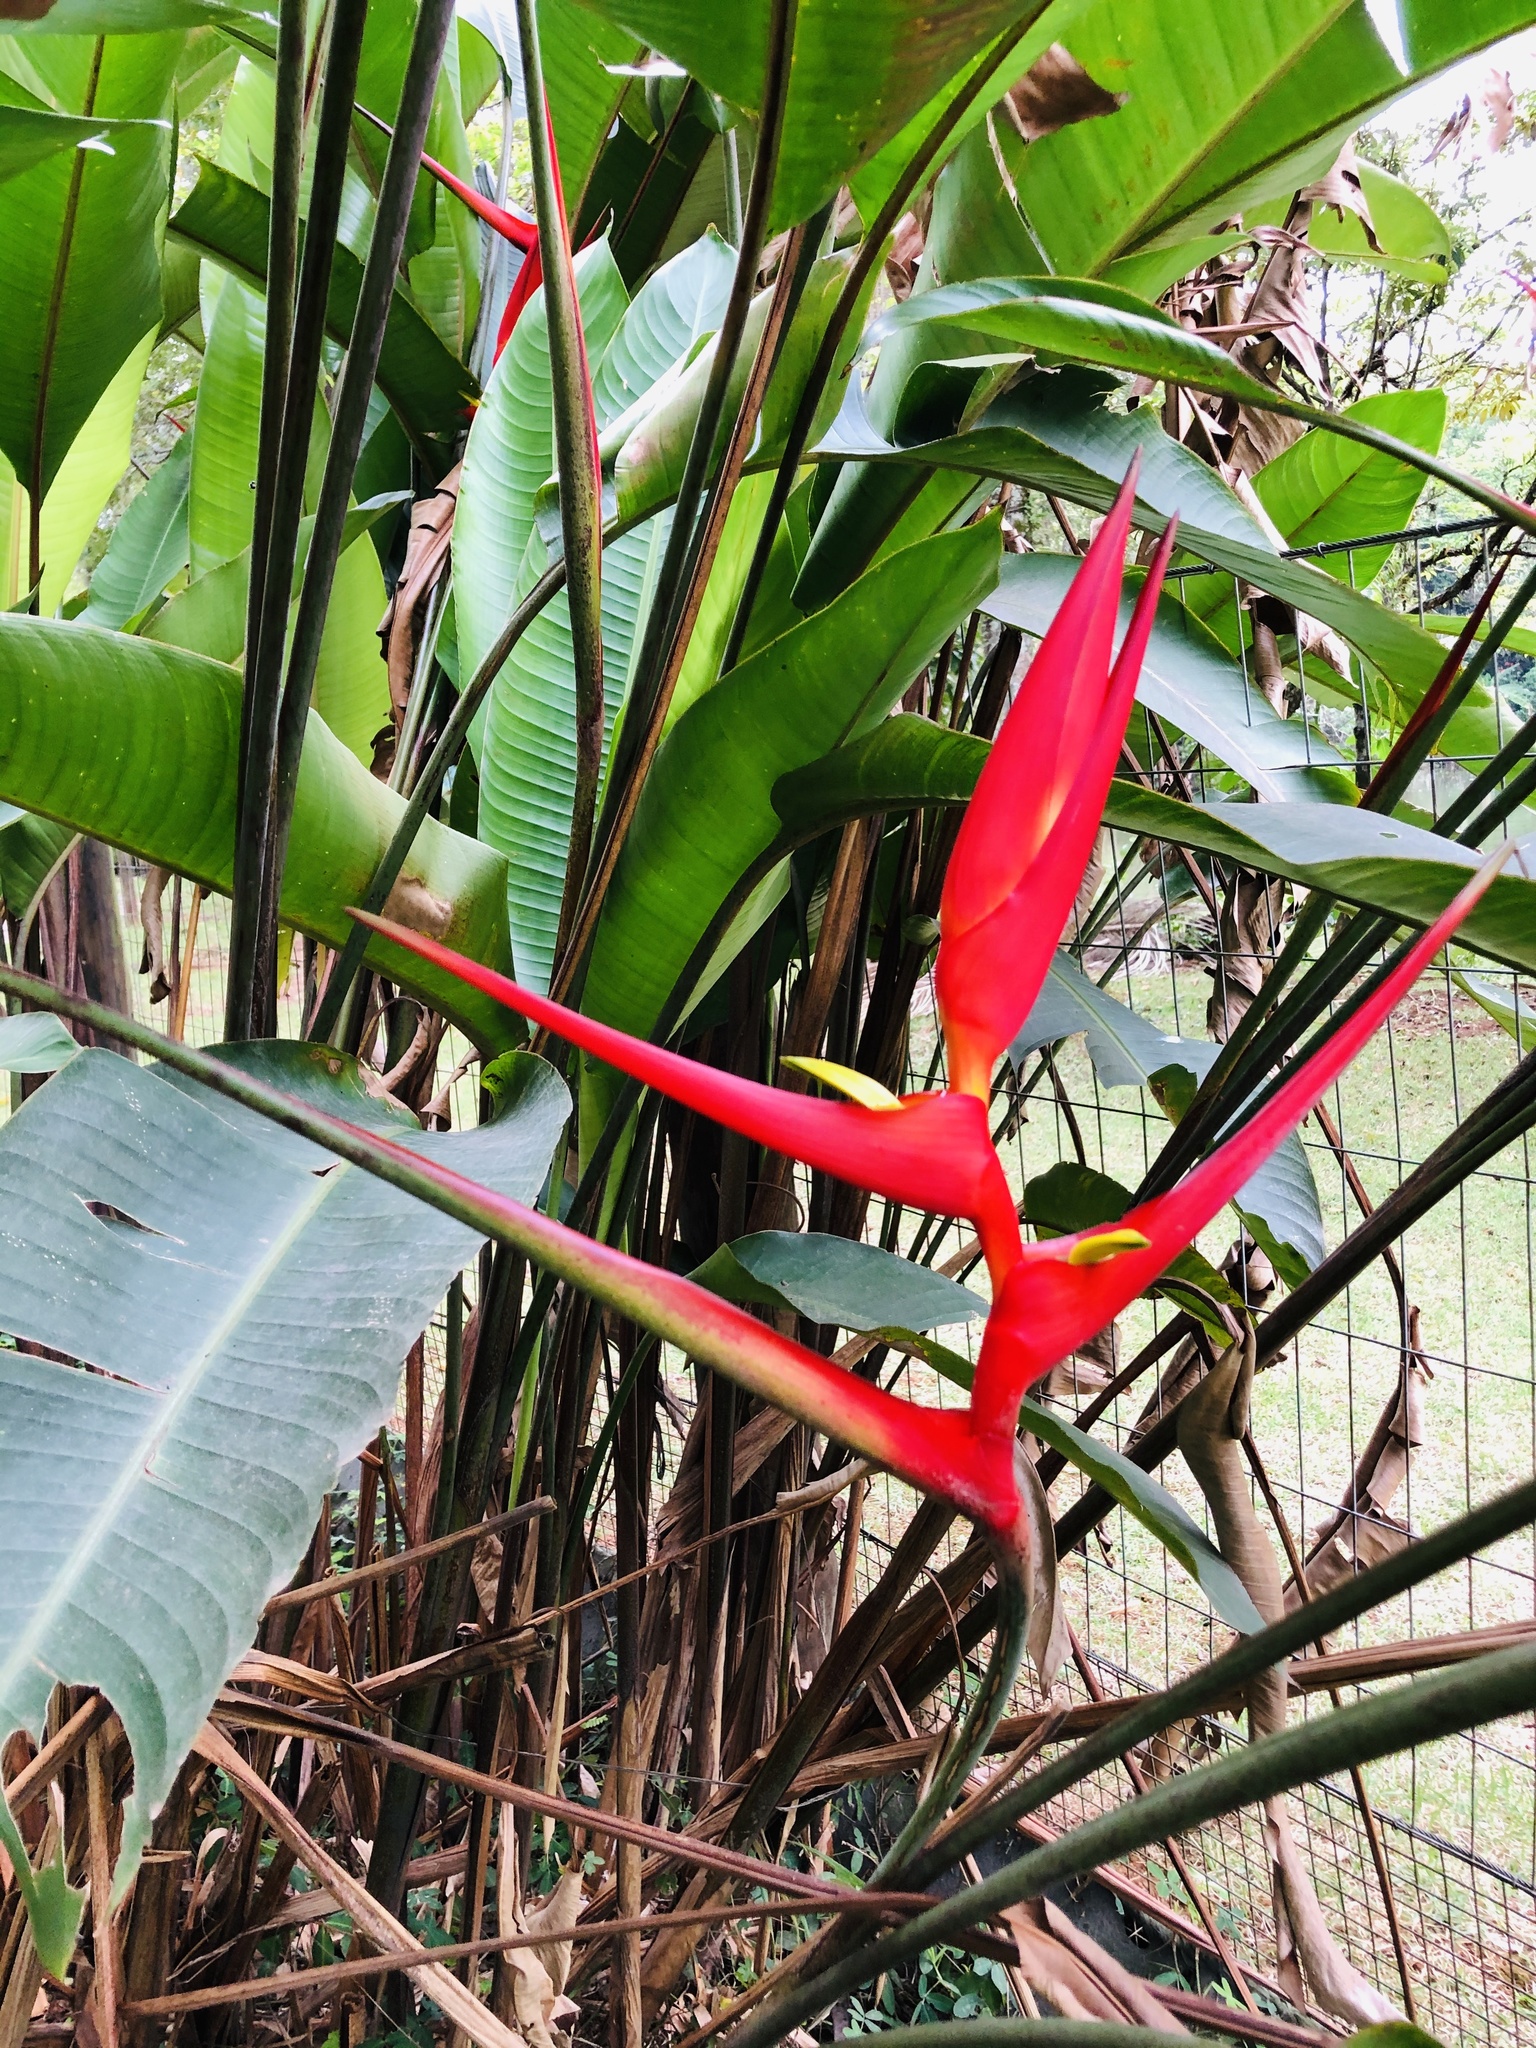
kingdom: Plantae
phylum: Tracheophyta
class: Liliopsida
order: Zingiberales
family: Heliconiaceae
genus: Heliconia
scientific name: Heliconia farinosa
